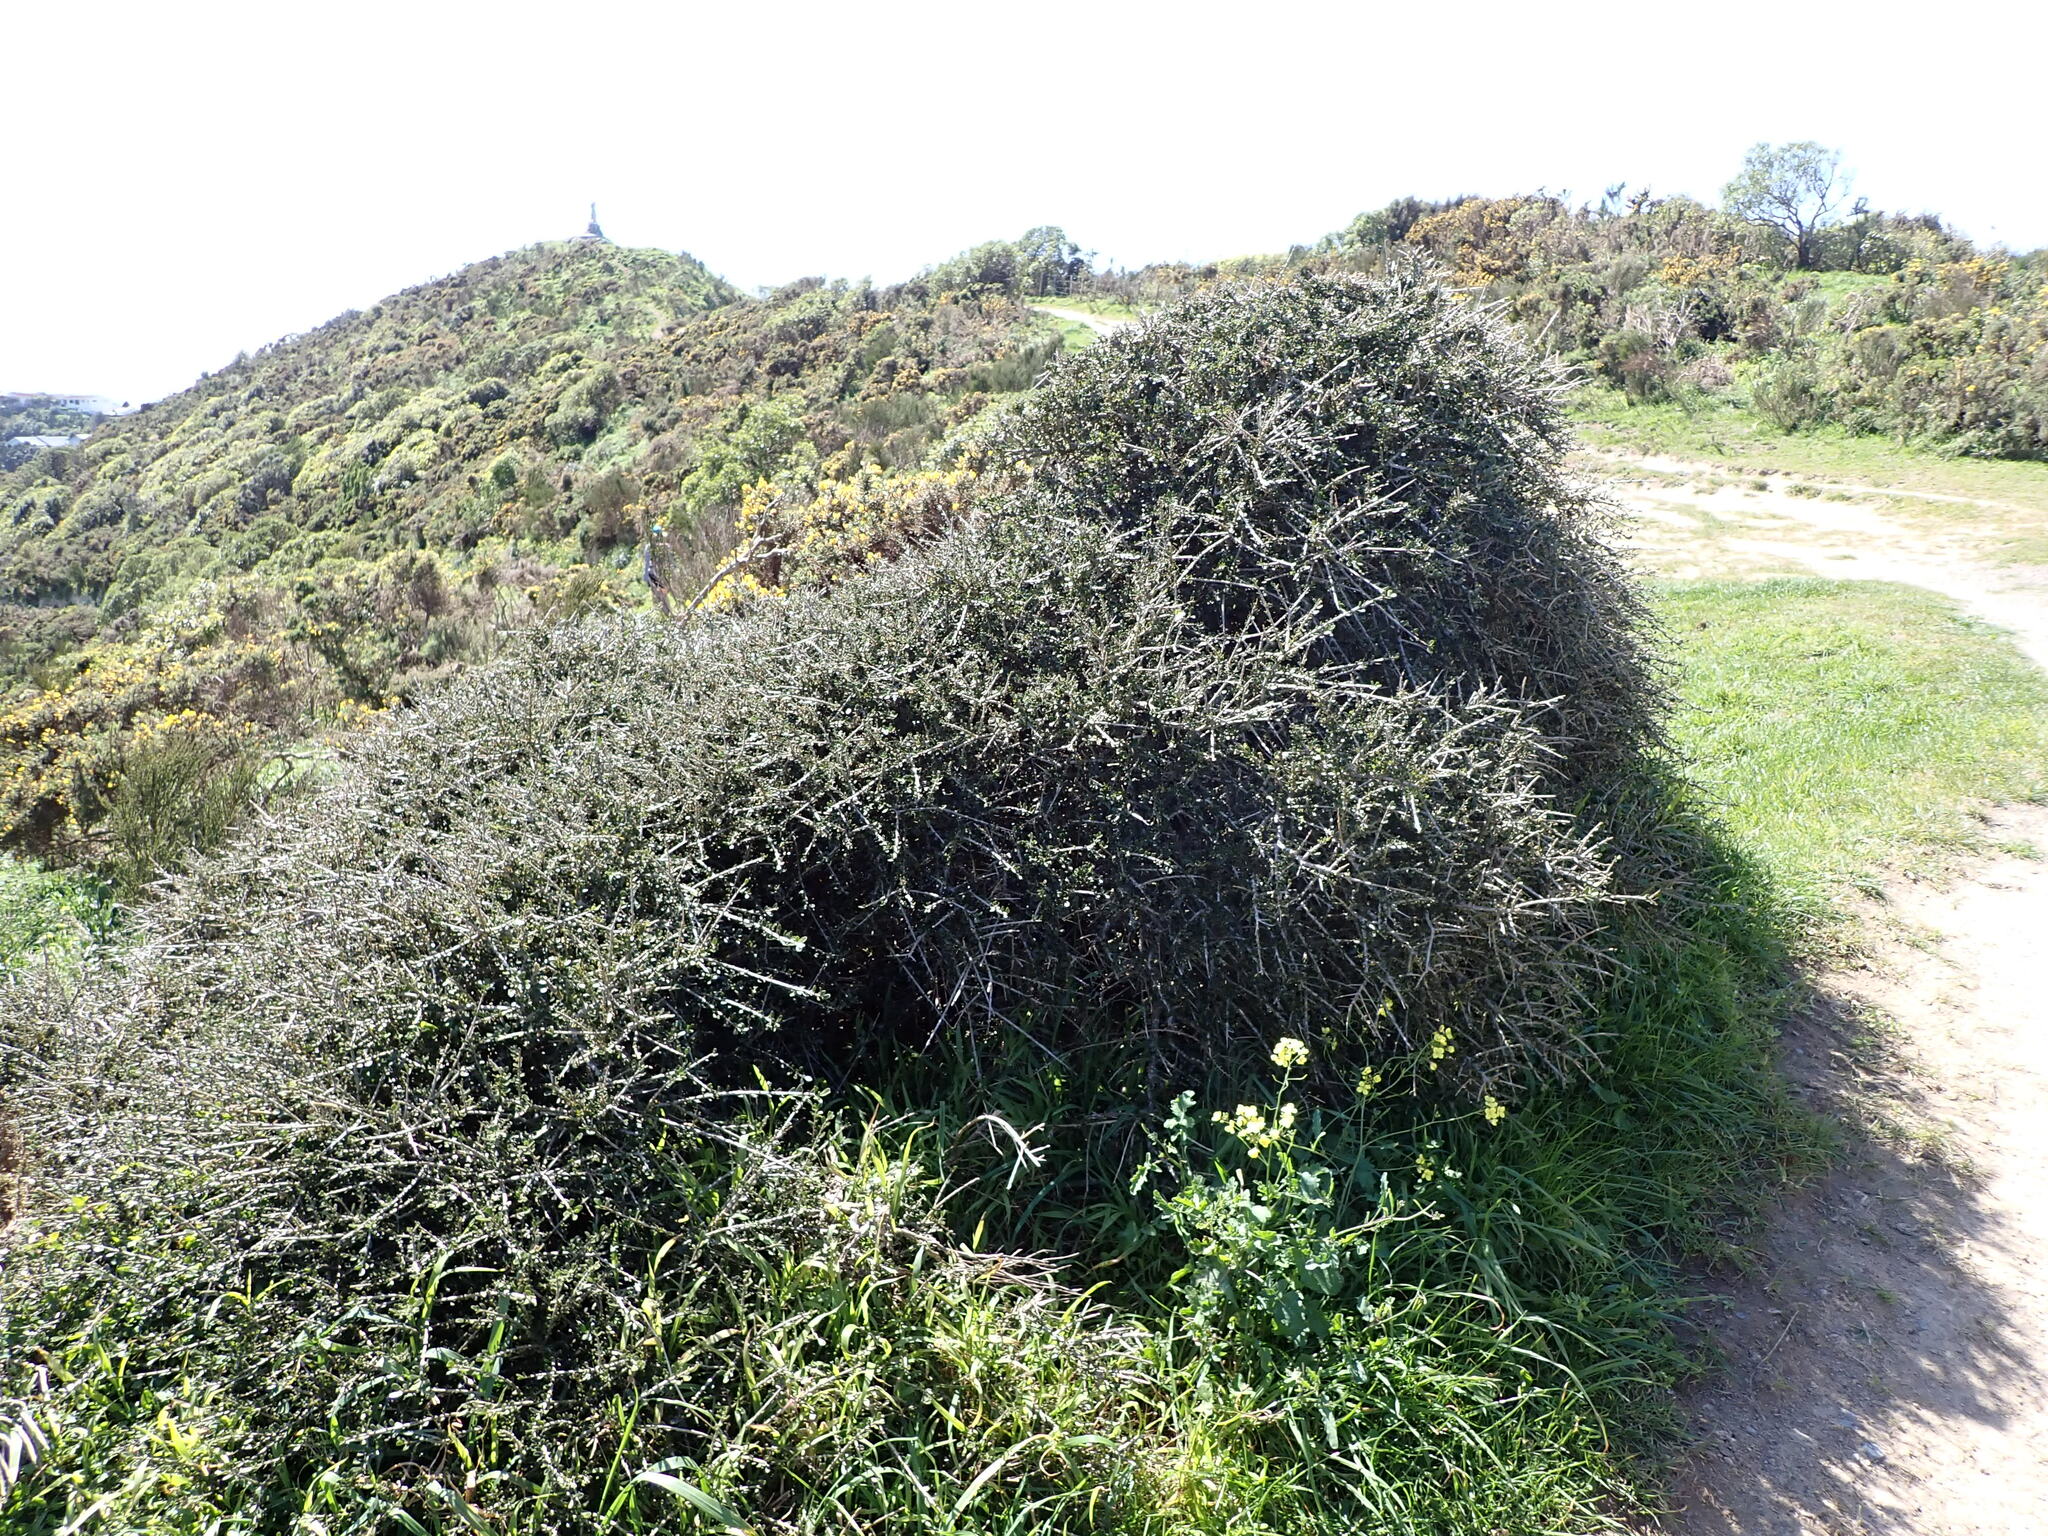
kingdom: Plantae
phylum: Tracheophyta
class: Magnoliopsida
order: Malpighiales
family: Violaceae
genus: Melicytus
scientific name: Melicytus crassifolius
